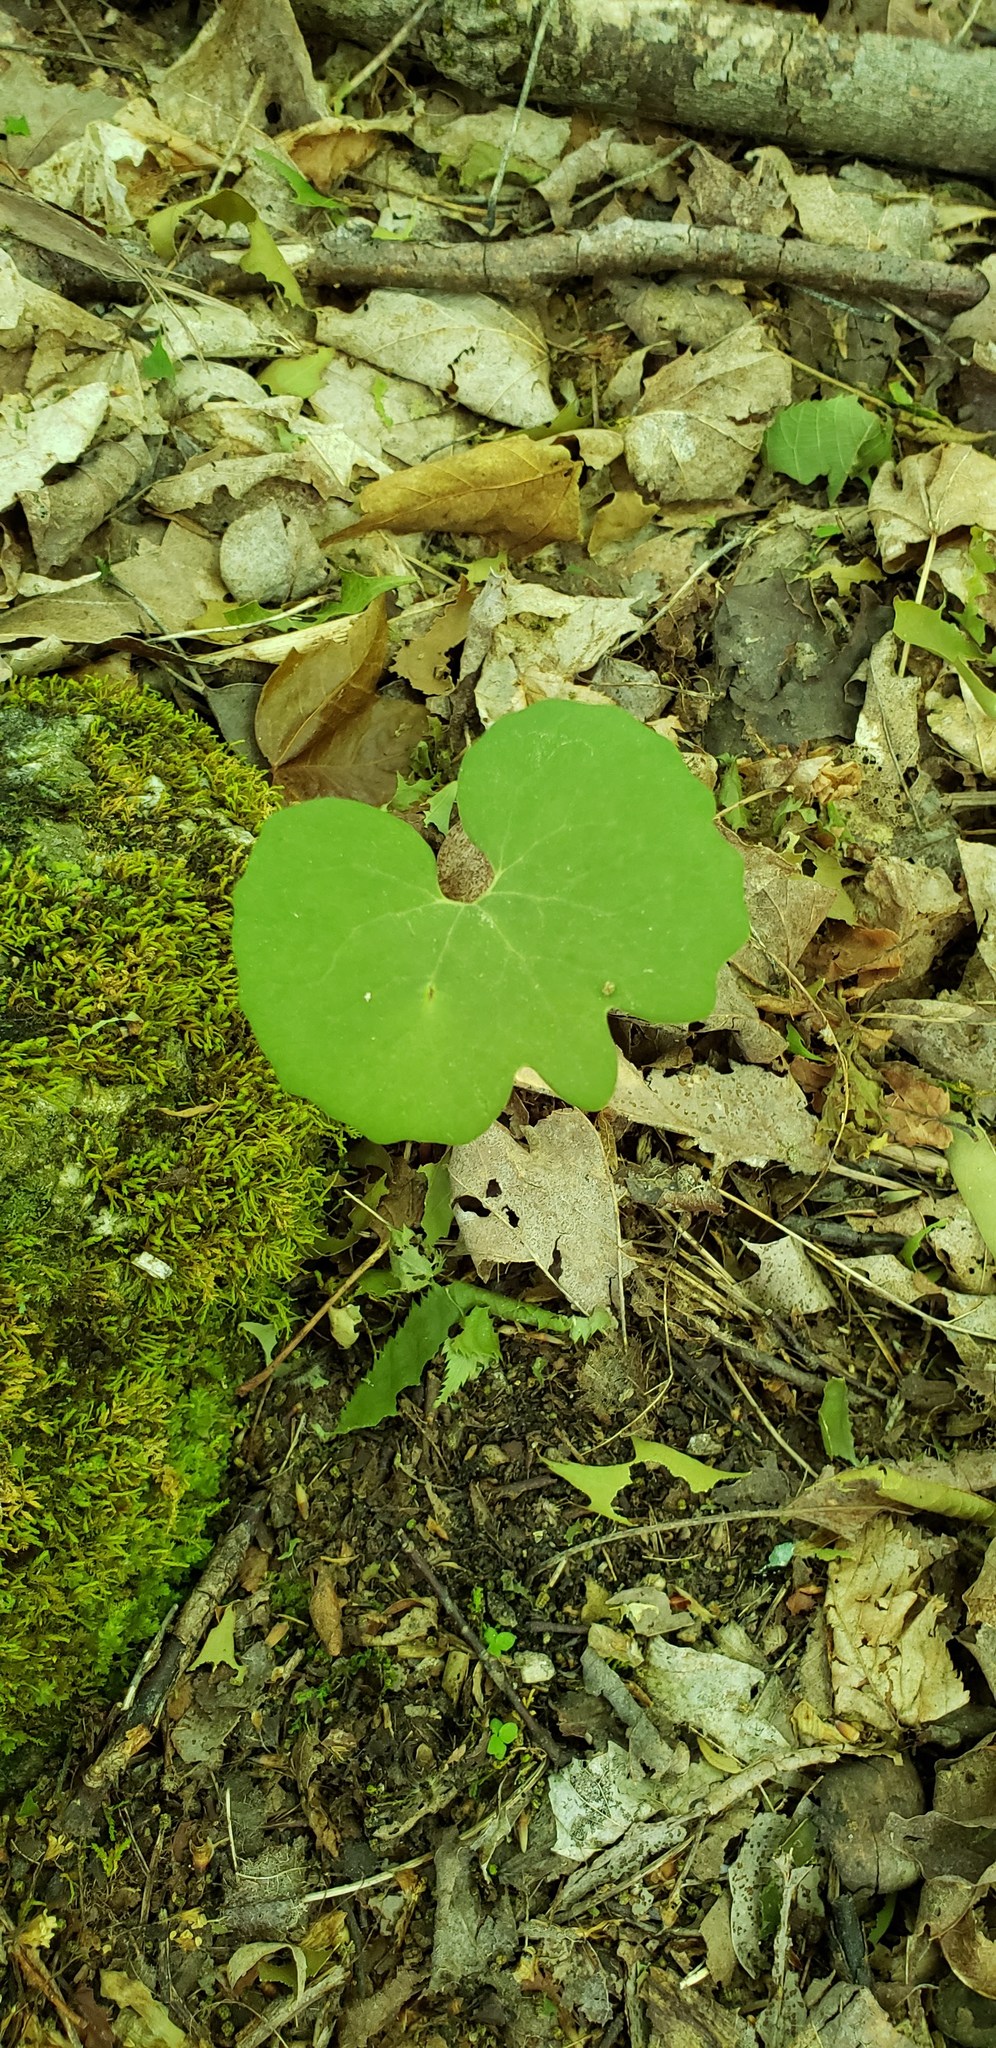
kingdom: Plantae
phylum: Tracheophyta
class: Magnoliopsida
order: Ranunculales
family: Papaveraceae
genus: Sanguinaria
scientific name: Sanguinaria canadensis
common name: Bloodroot
